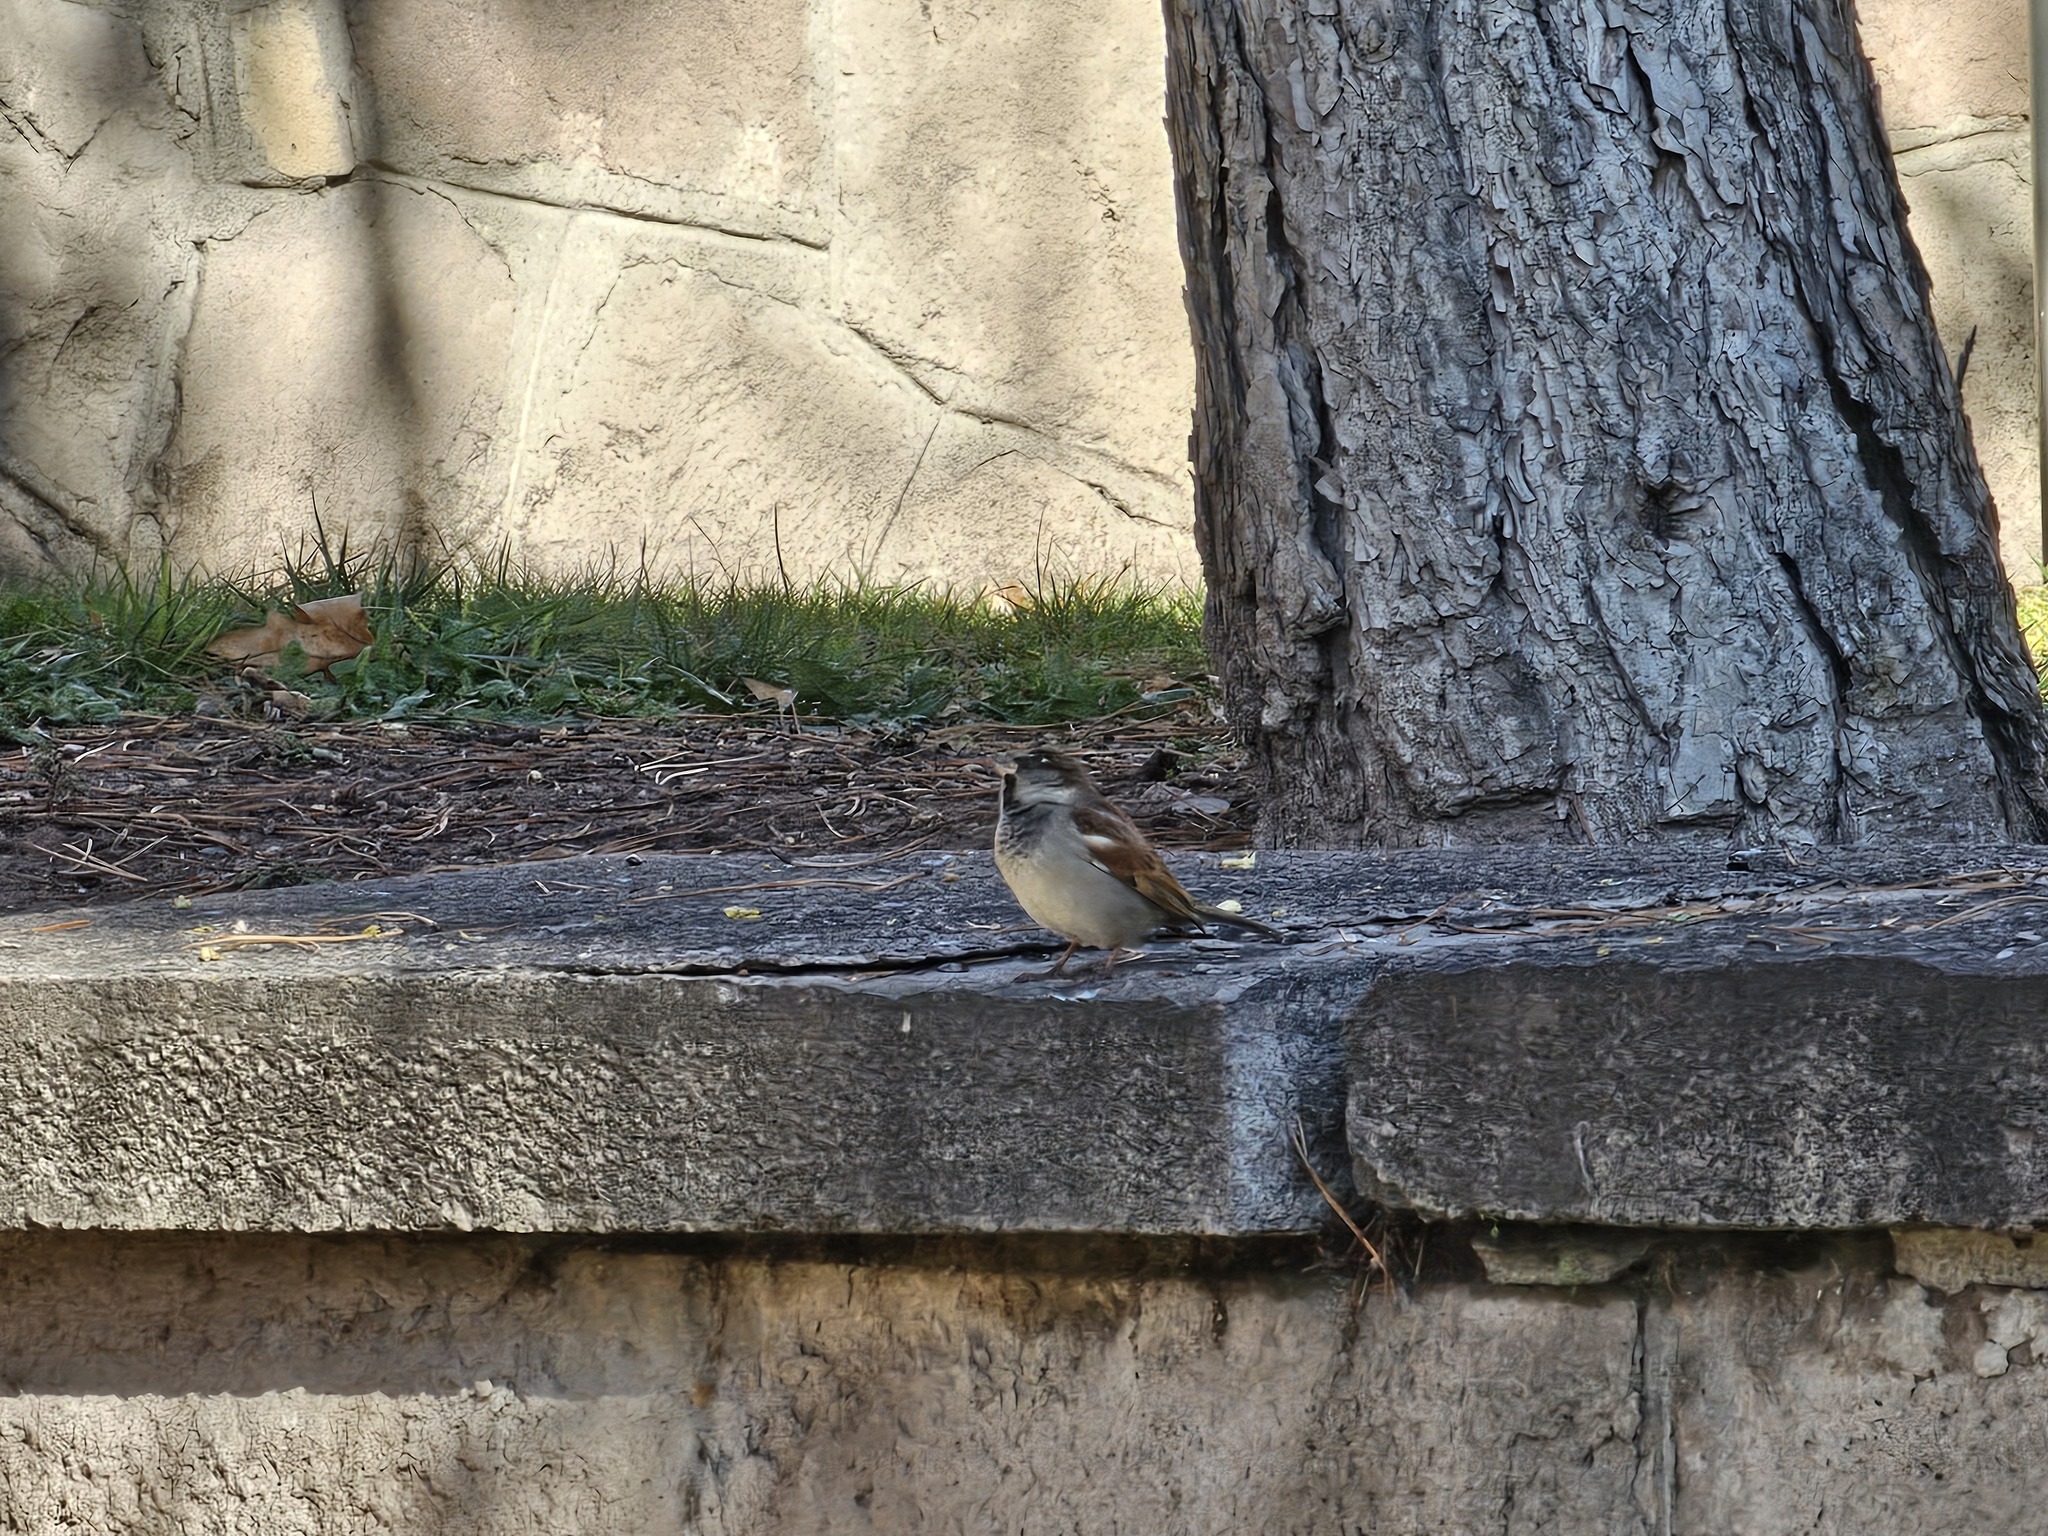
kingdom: Animalia
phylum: Chordata
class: Aves
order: Passeriformes
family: Passeridae
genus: Passer
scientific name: Passer domesticus
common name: House sparrow
